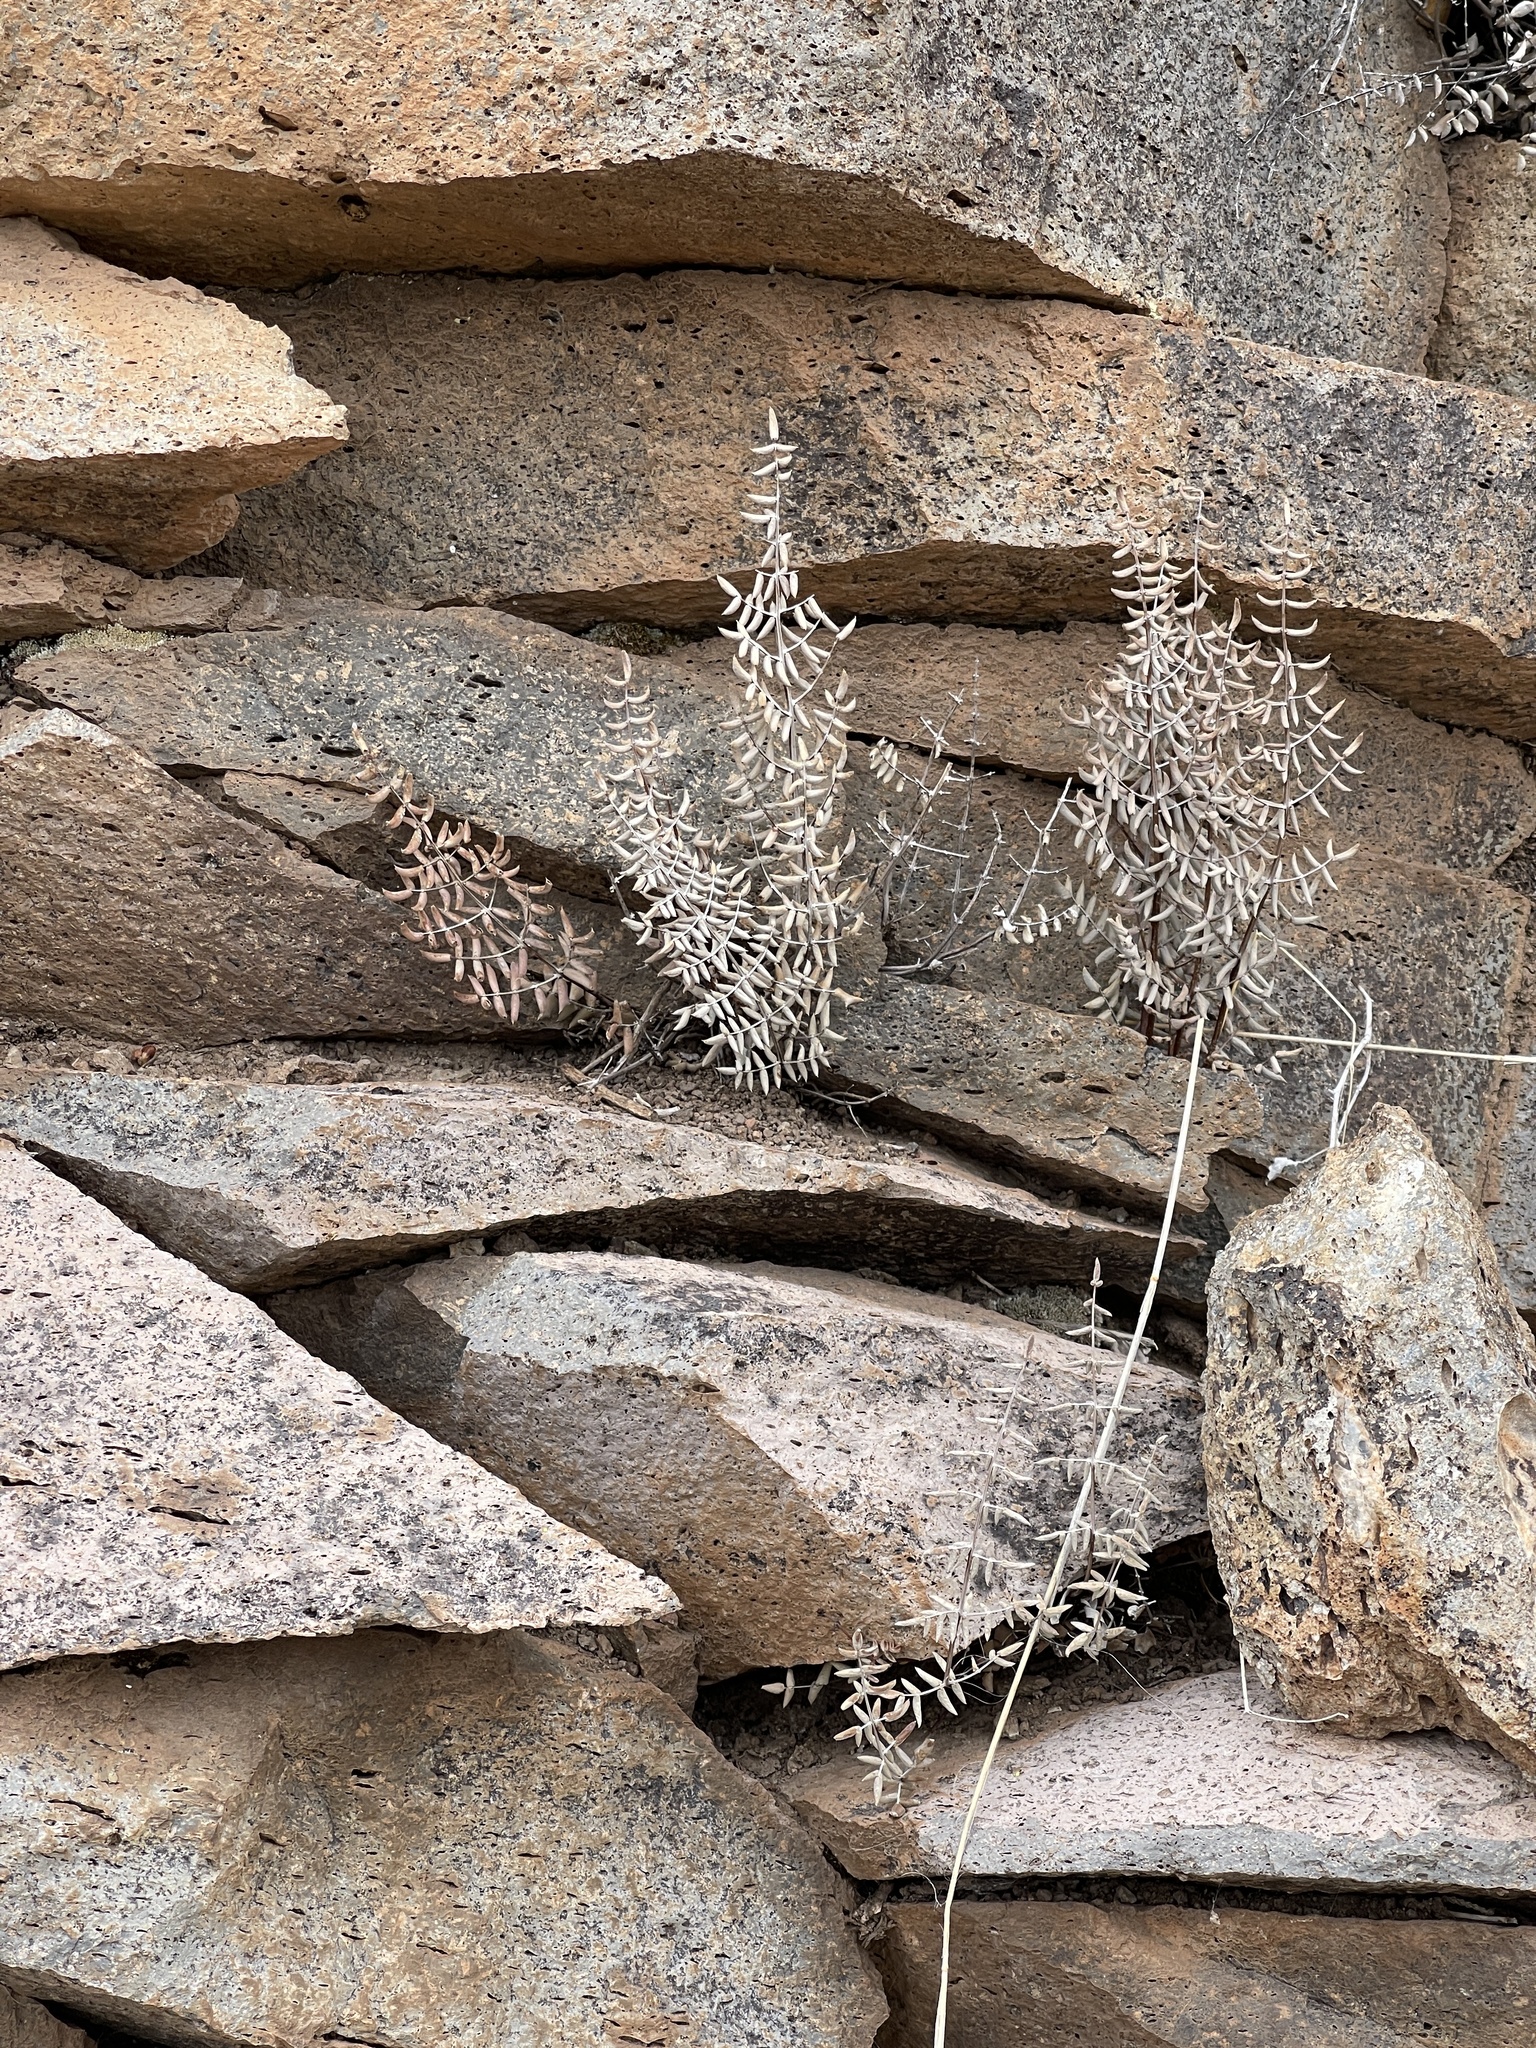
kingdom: Plantae
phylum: Tracheophyta
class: Polypodiopsida
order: Polypodiales
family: Pteridaceae
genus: Pellaea
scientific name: Pellaea truncata
